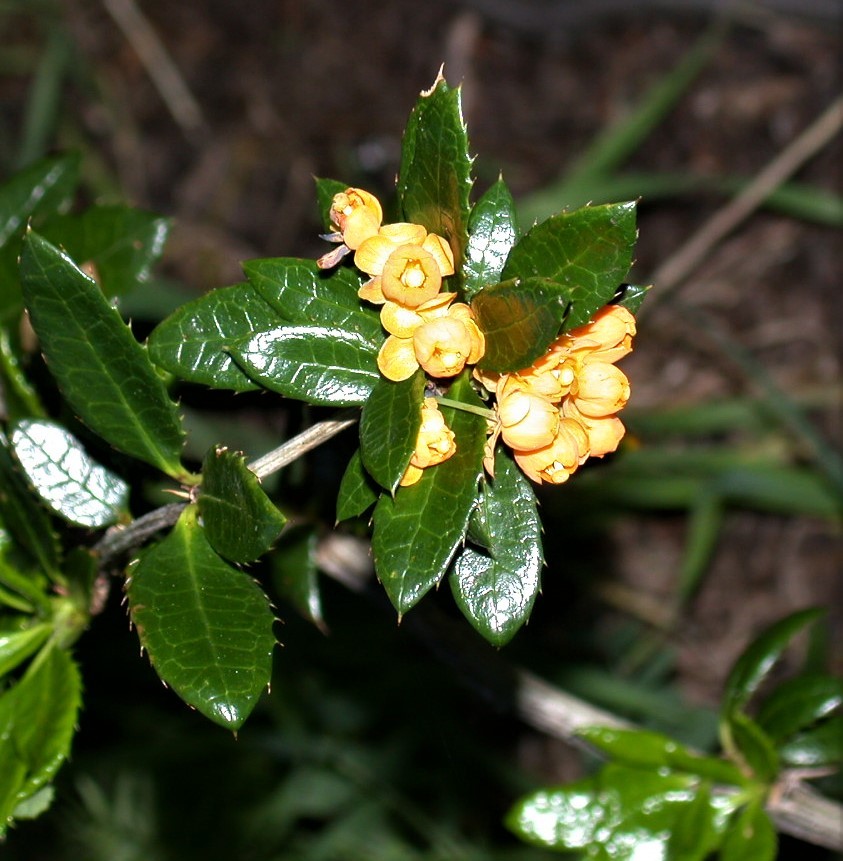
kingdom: Plantae
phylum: Tracheophyta
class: Magnoliopsida
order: Ranunculales
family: Berberidaceae
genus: Berberis
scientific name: Berberis pseudoilicifolia
